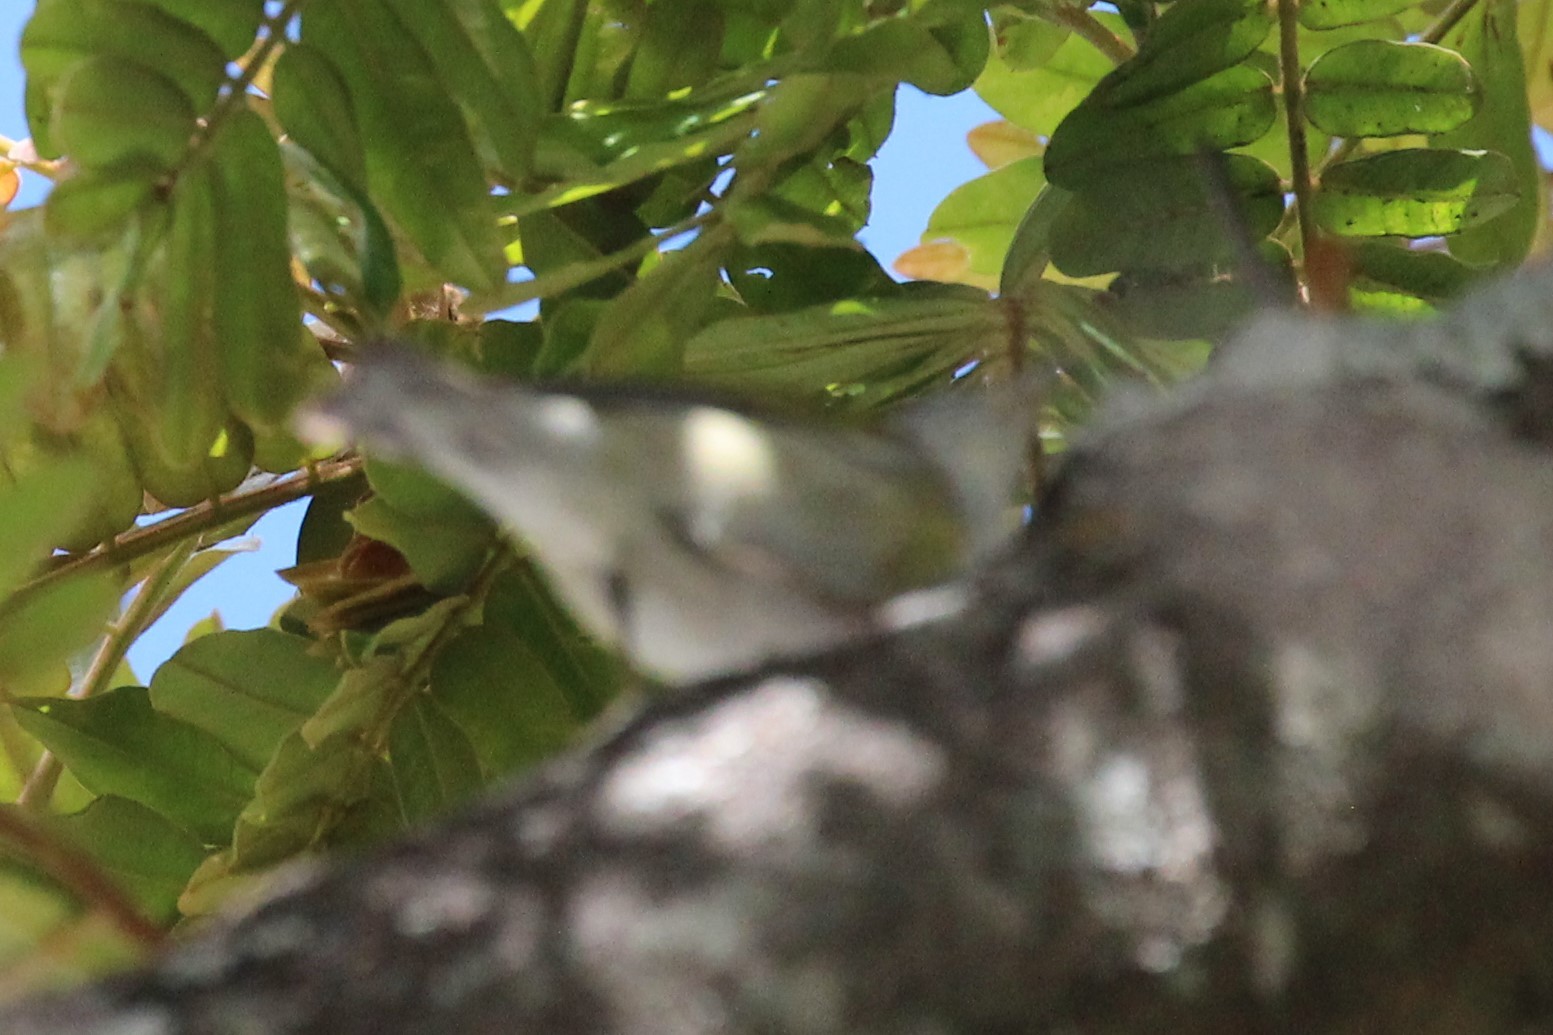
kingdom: Animalia
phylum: Chordata
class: Aves
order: Passeriformes
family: Parulidae
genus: Leiothlypis
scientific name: Leiothlypis peregrina
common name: Tennessee warbler
